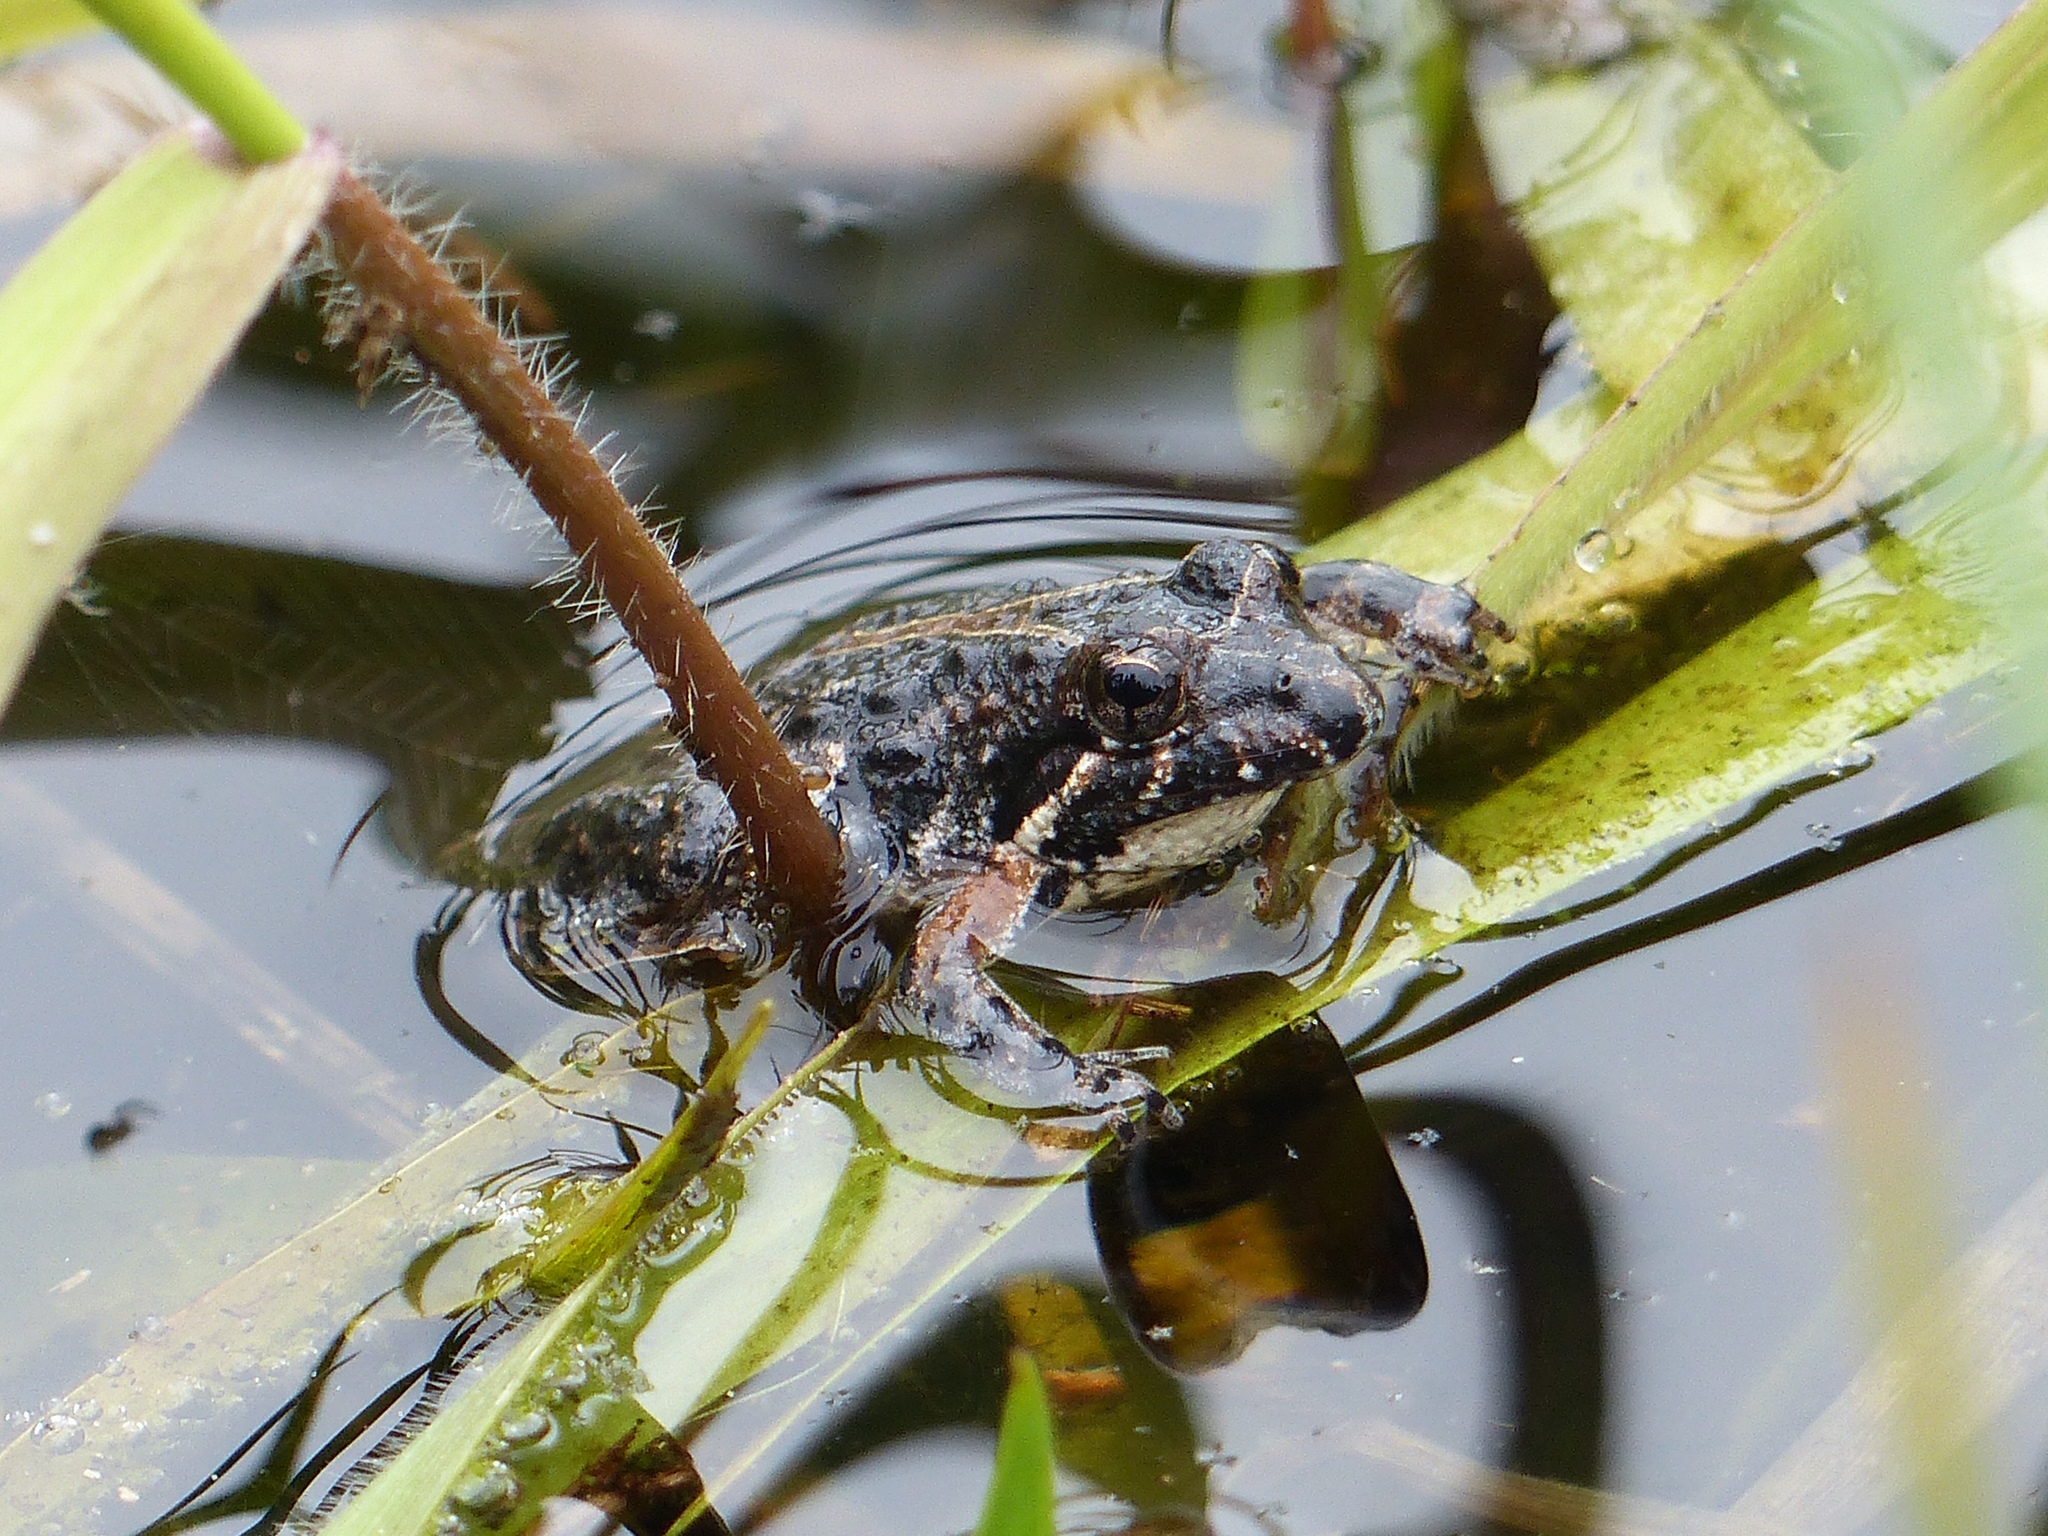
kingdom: Animalia
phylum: Chordata
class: Amphibia
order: Anura
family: Hylidae
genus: Acris
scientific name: Acris gryllus
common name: Southern cricket frog
